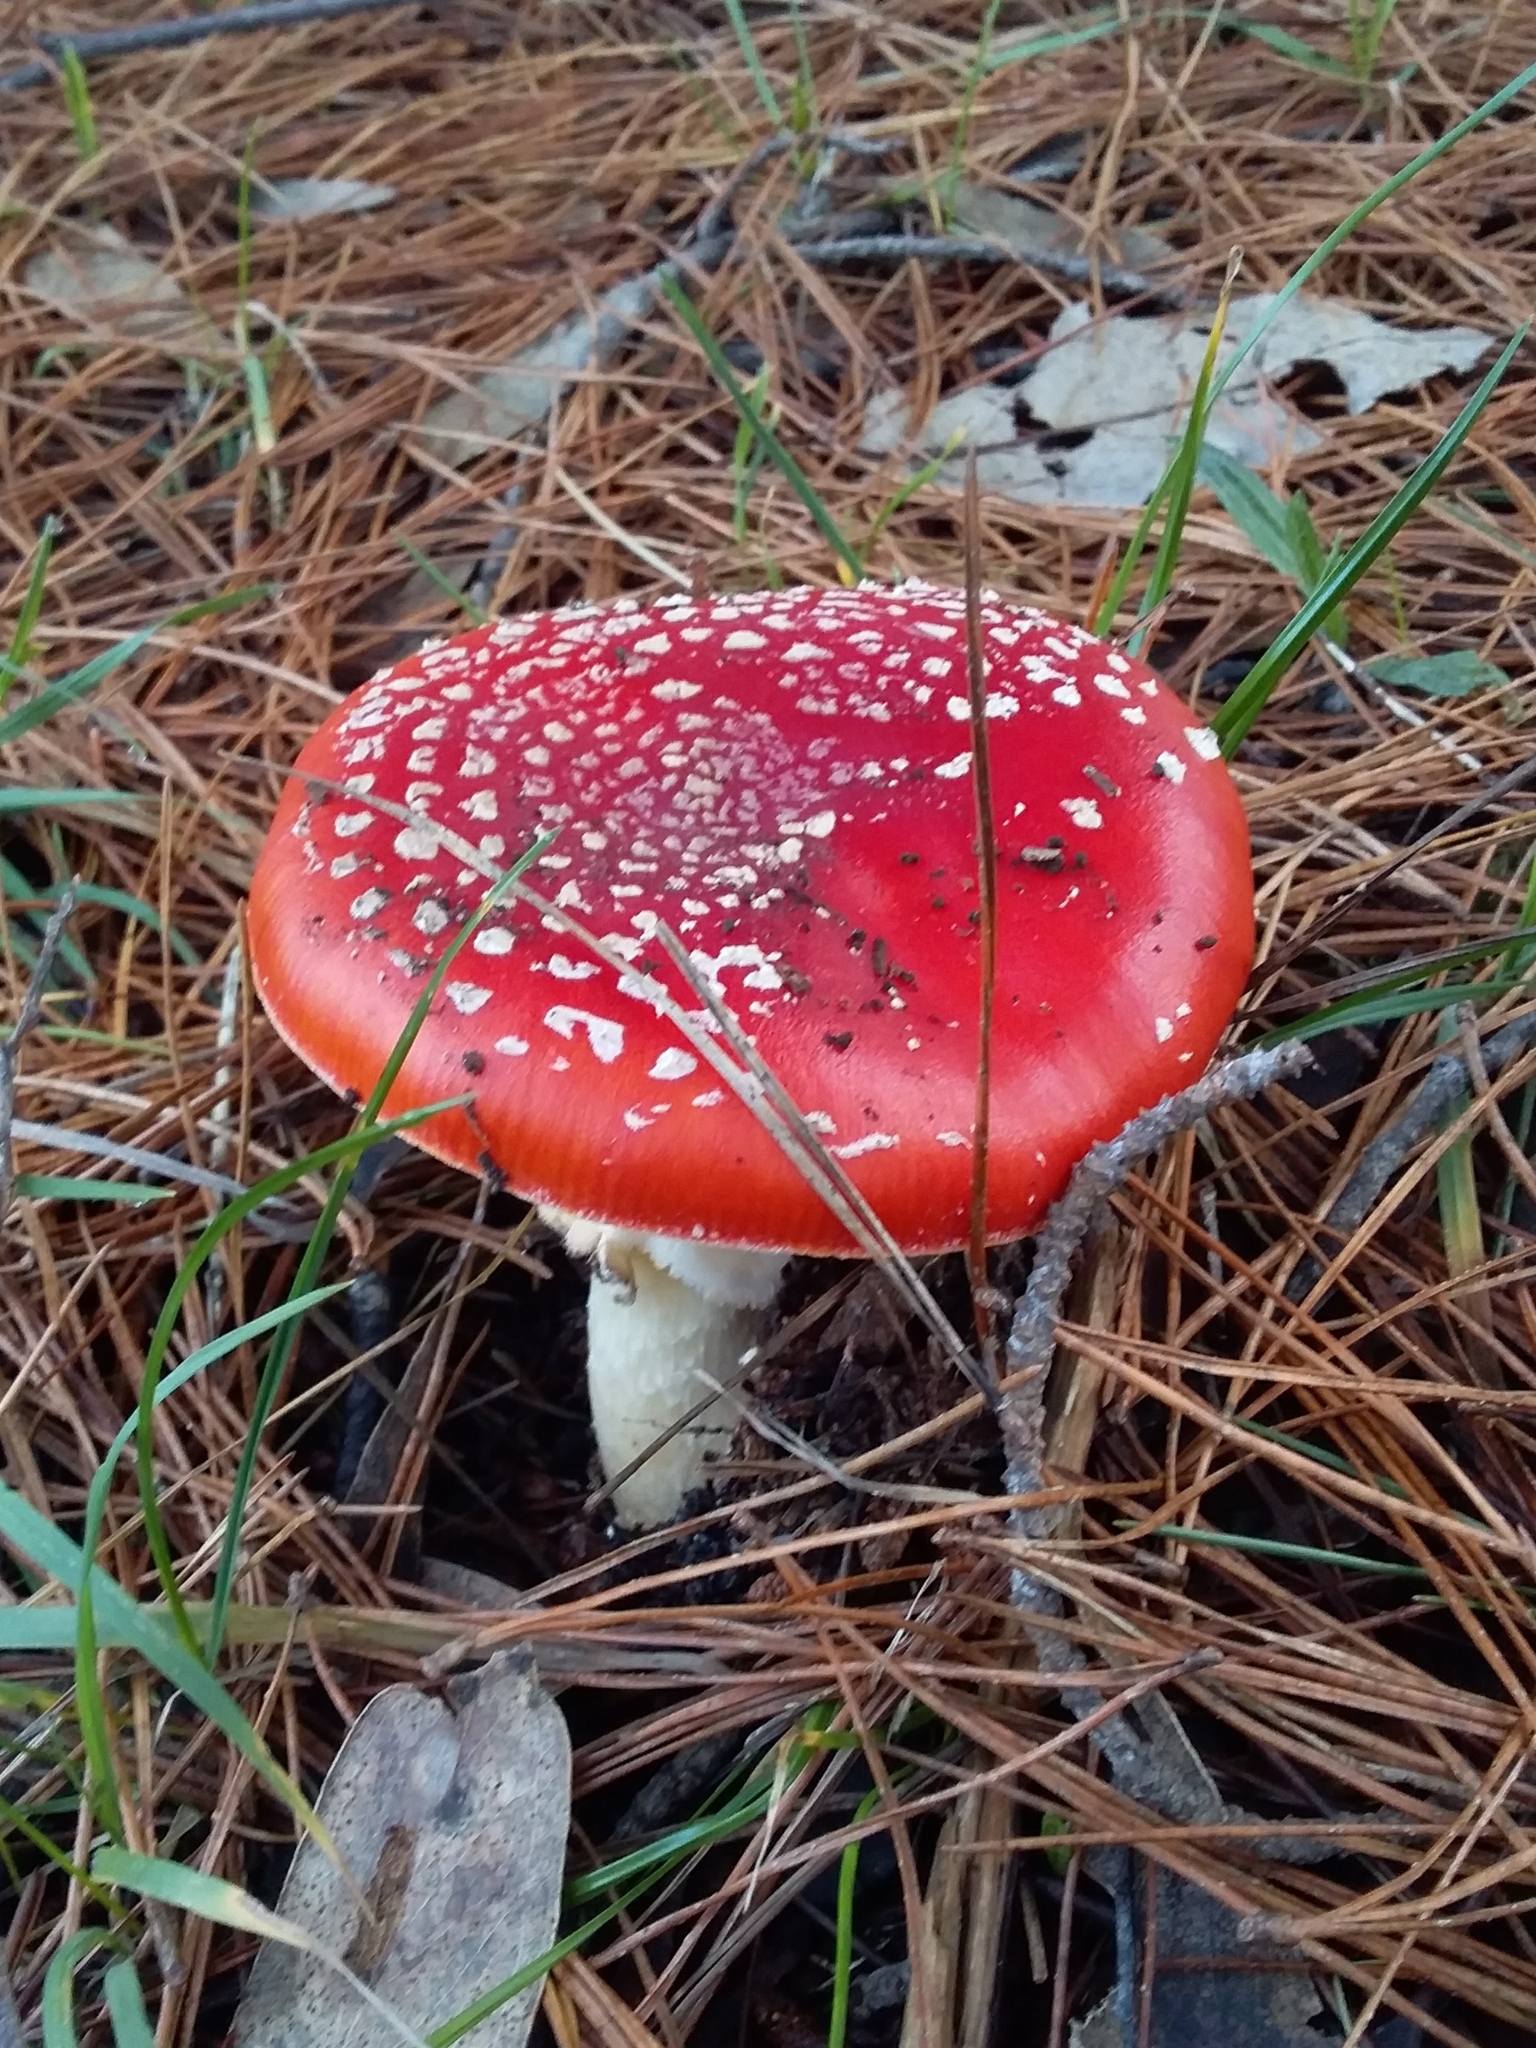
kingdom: Fungi
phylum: Basidiomycota
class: Agaricomycetes
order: Agaricales
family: Amanitaceae
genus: Amanita
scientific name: Amanita muscaria
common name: Fly agaric
